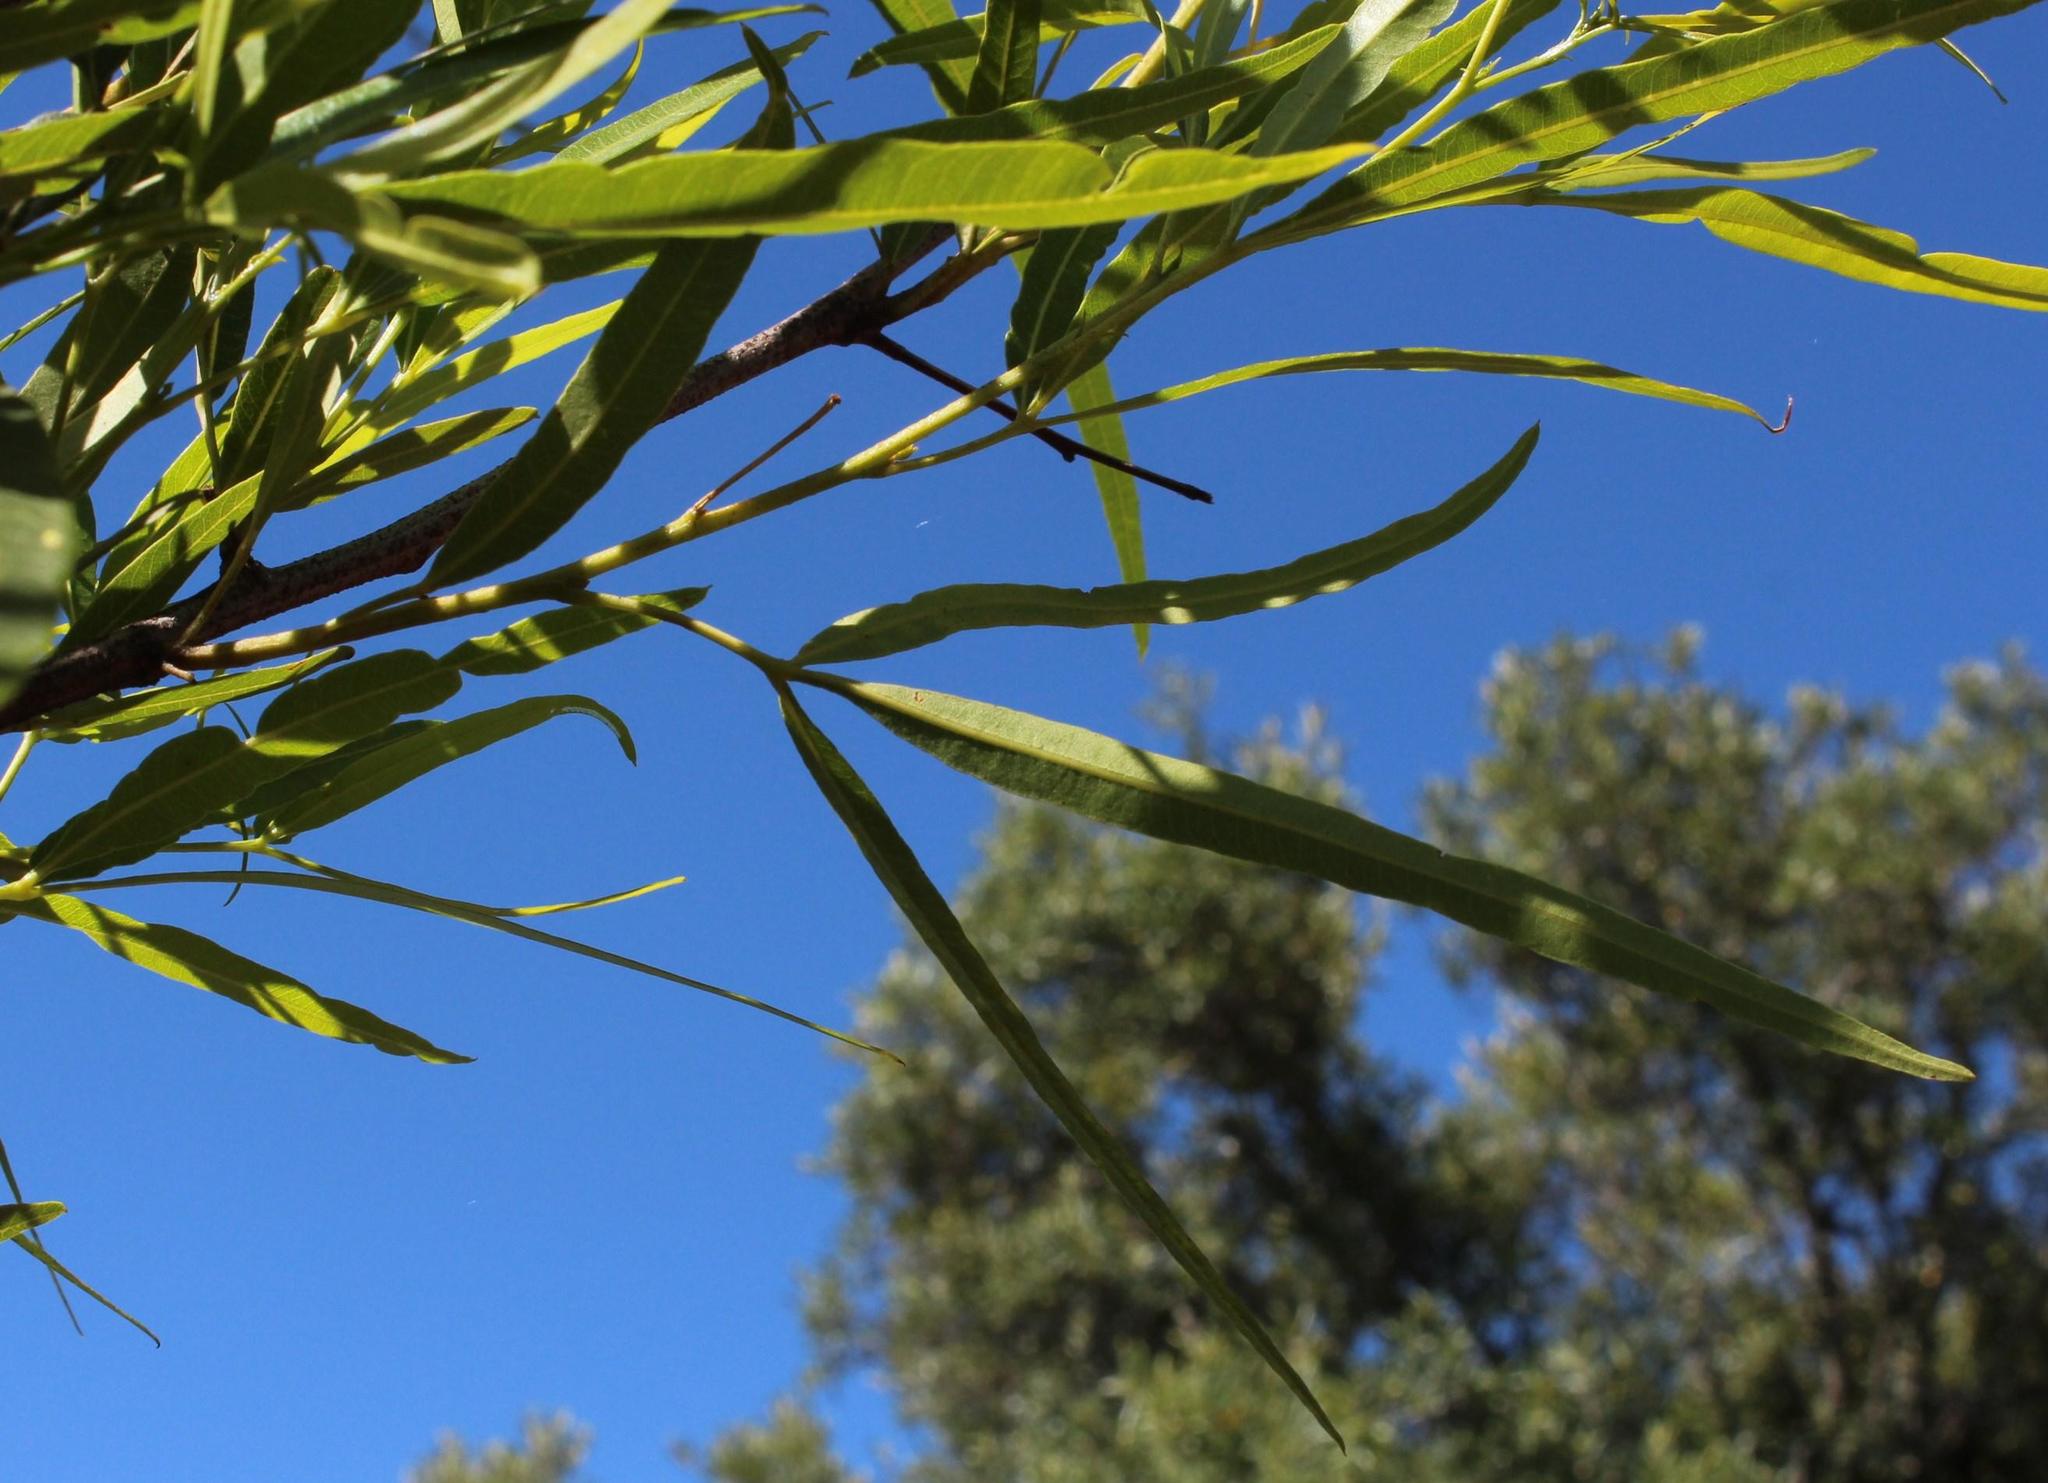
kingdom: Plantae
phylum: Tracheophyta
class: Magnoliopsida
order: Sapindales
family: Anacardiaceae
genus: Searsia
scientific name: Searsia lancea
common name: Cashew
